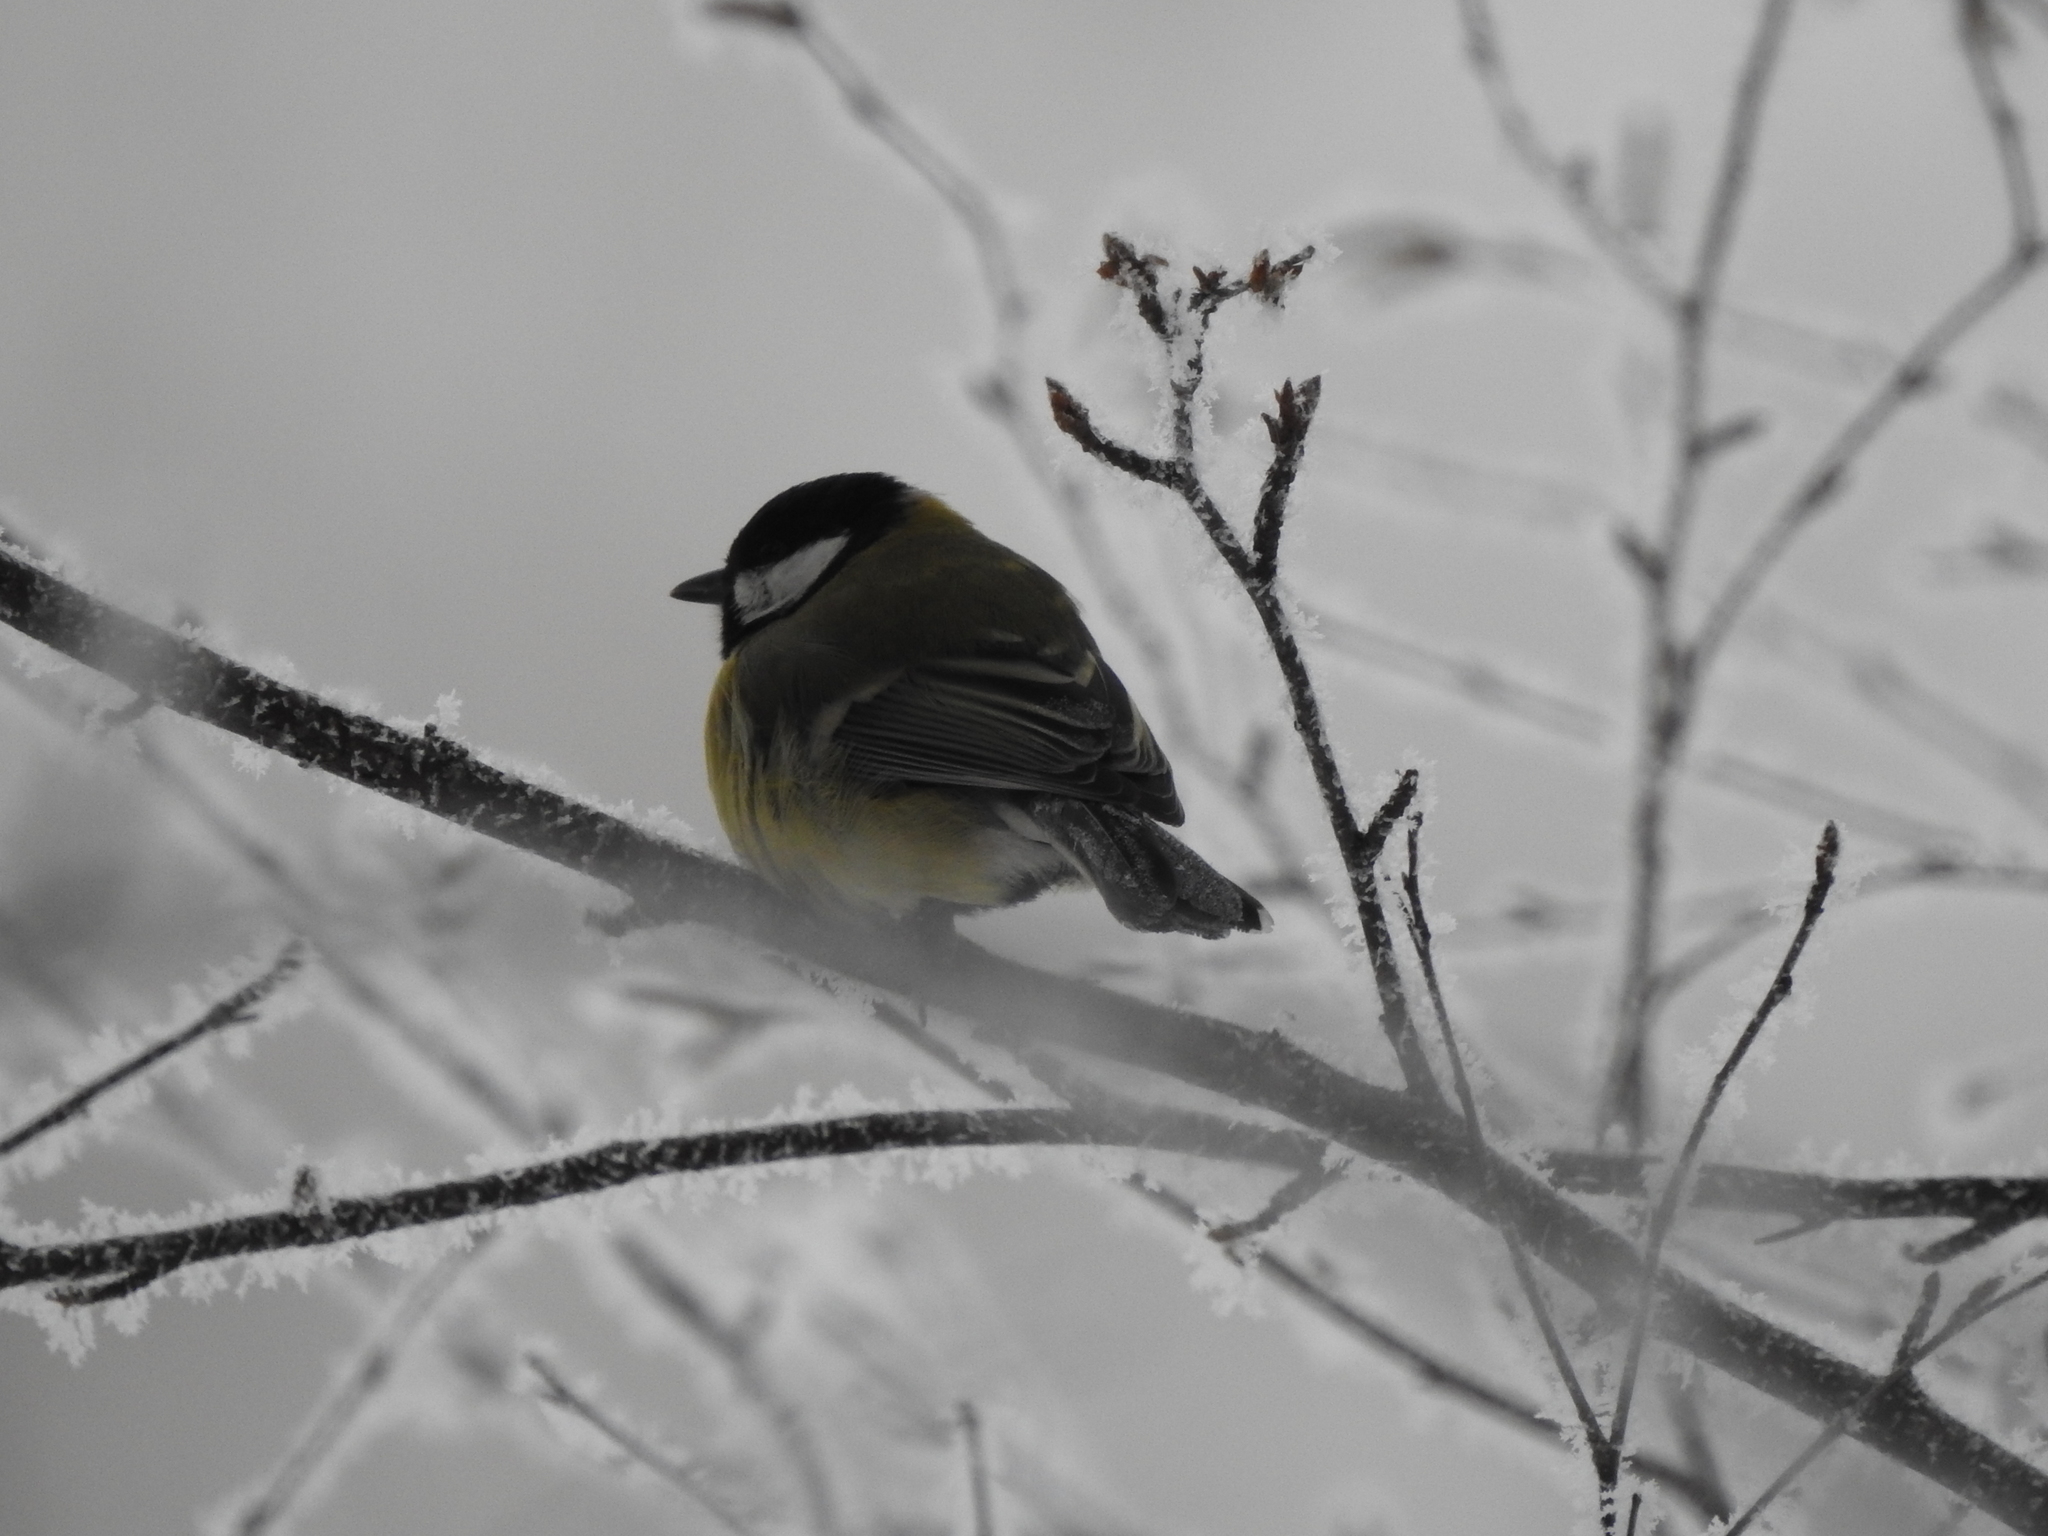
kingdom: Animalia
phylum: Chordata
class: Aves
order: Passeriformes
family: Paridae
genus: Parus
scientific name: Parus major
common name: Great tit
